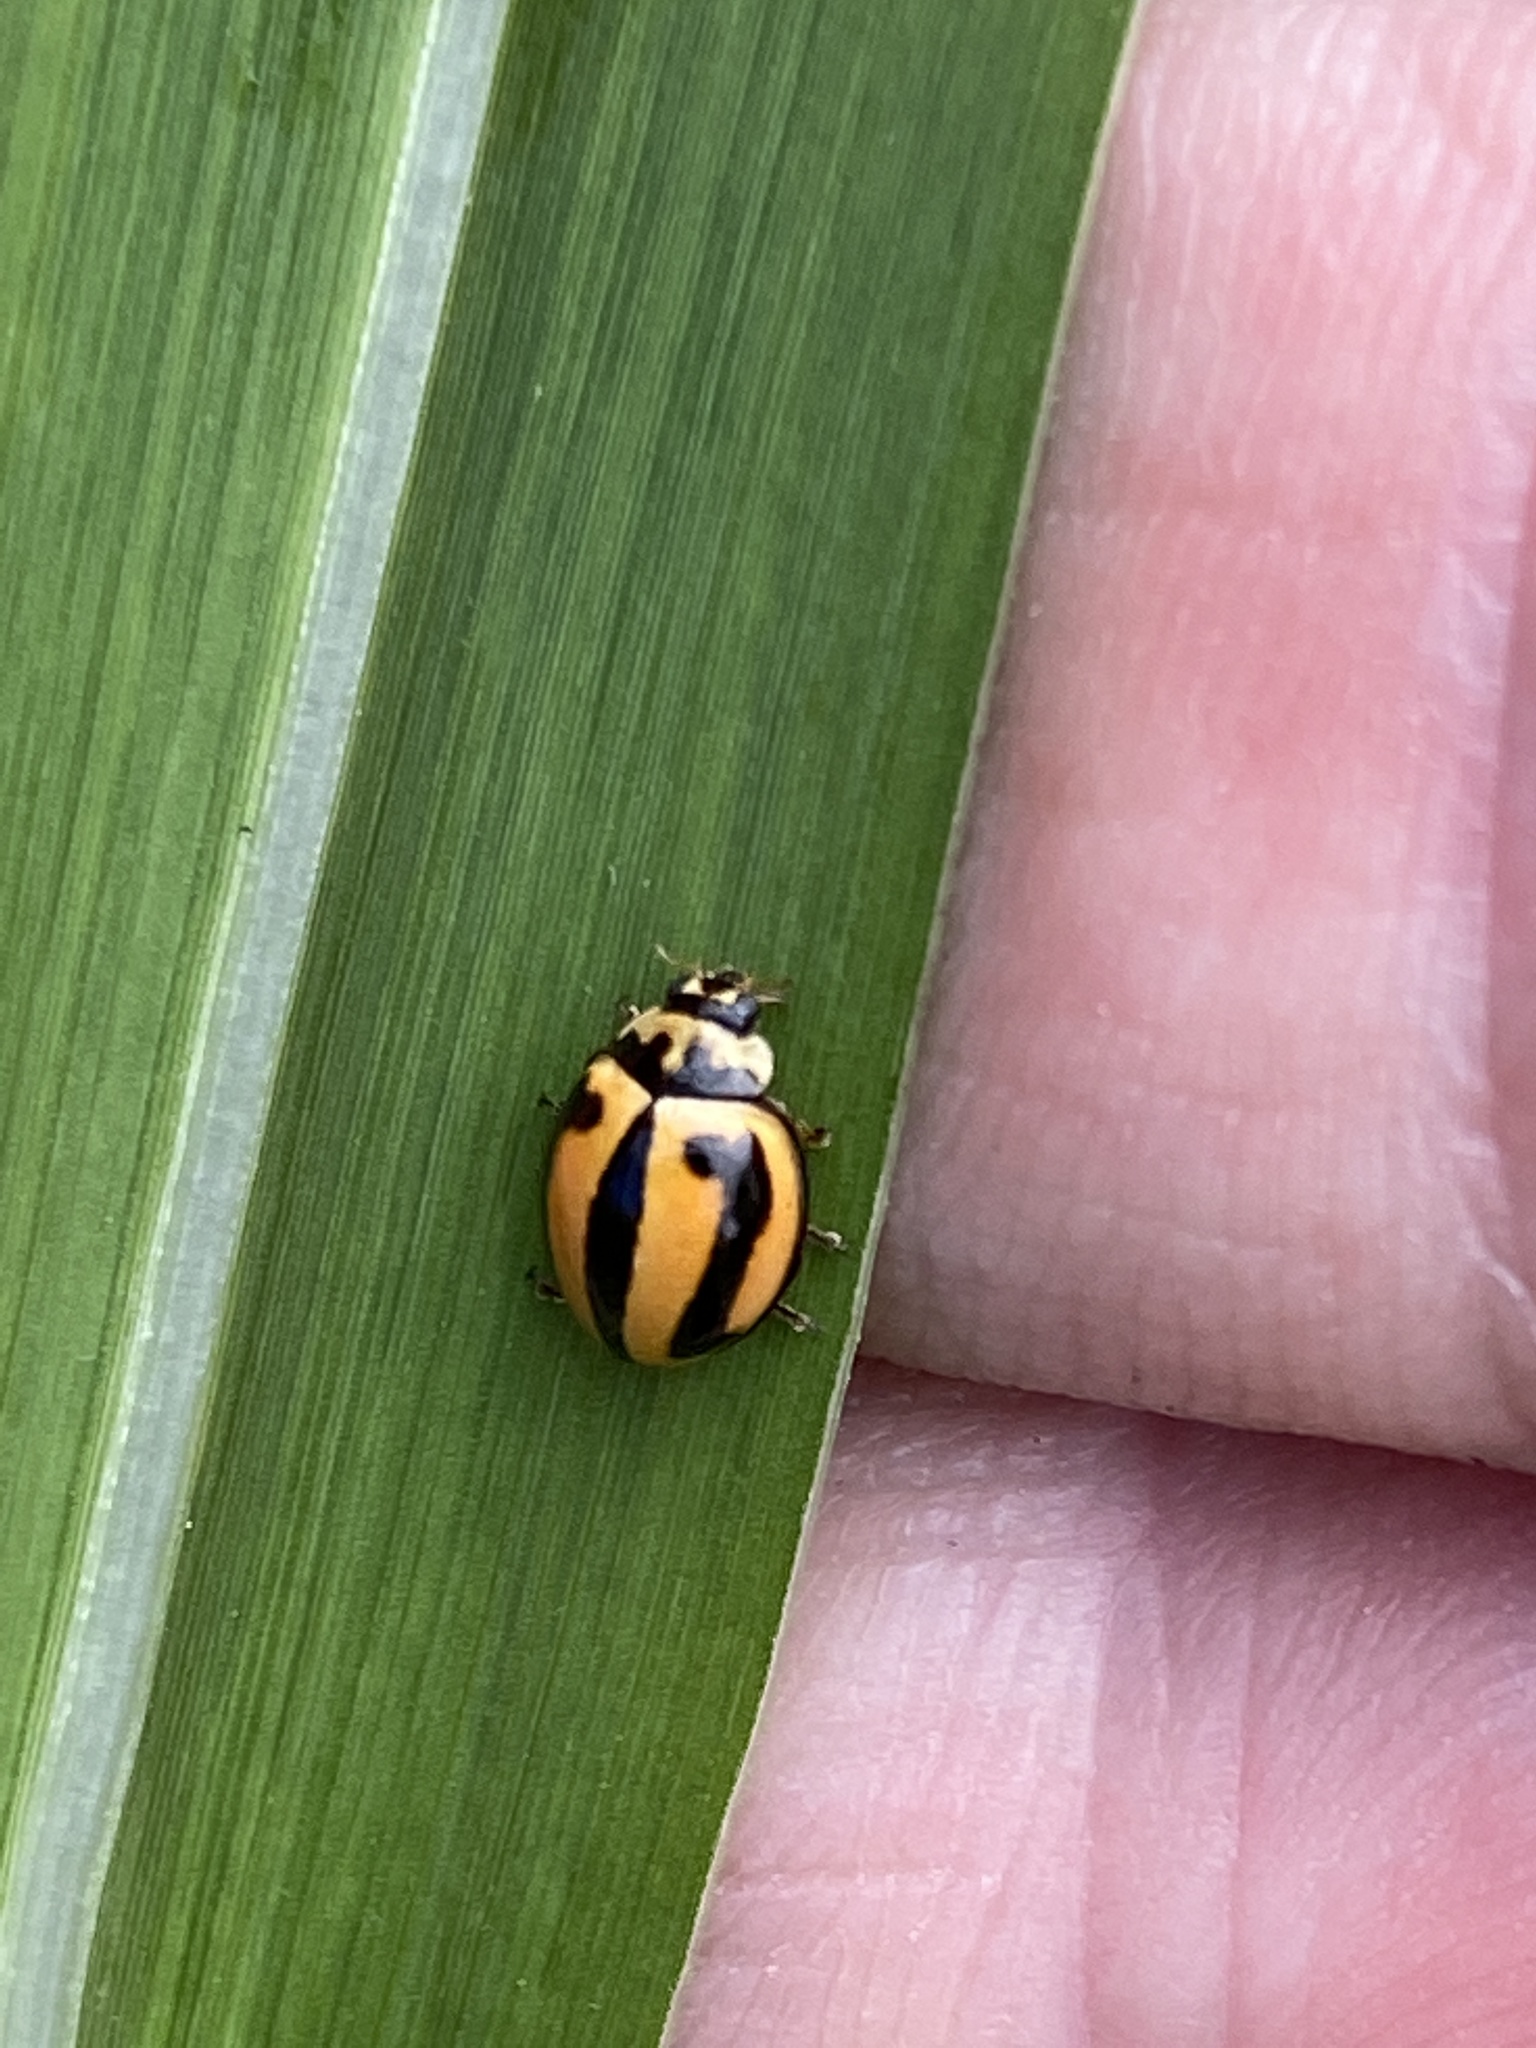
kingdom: Animalia
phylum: Arthropoda
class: Insecta
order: Coleoptera
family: Coccinellidae
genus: Micraspis
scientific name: Micraspis frenata
